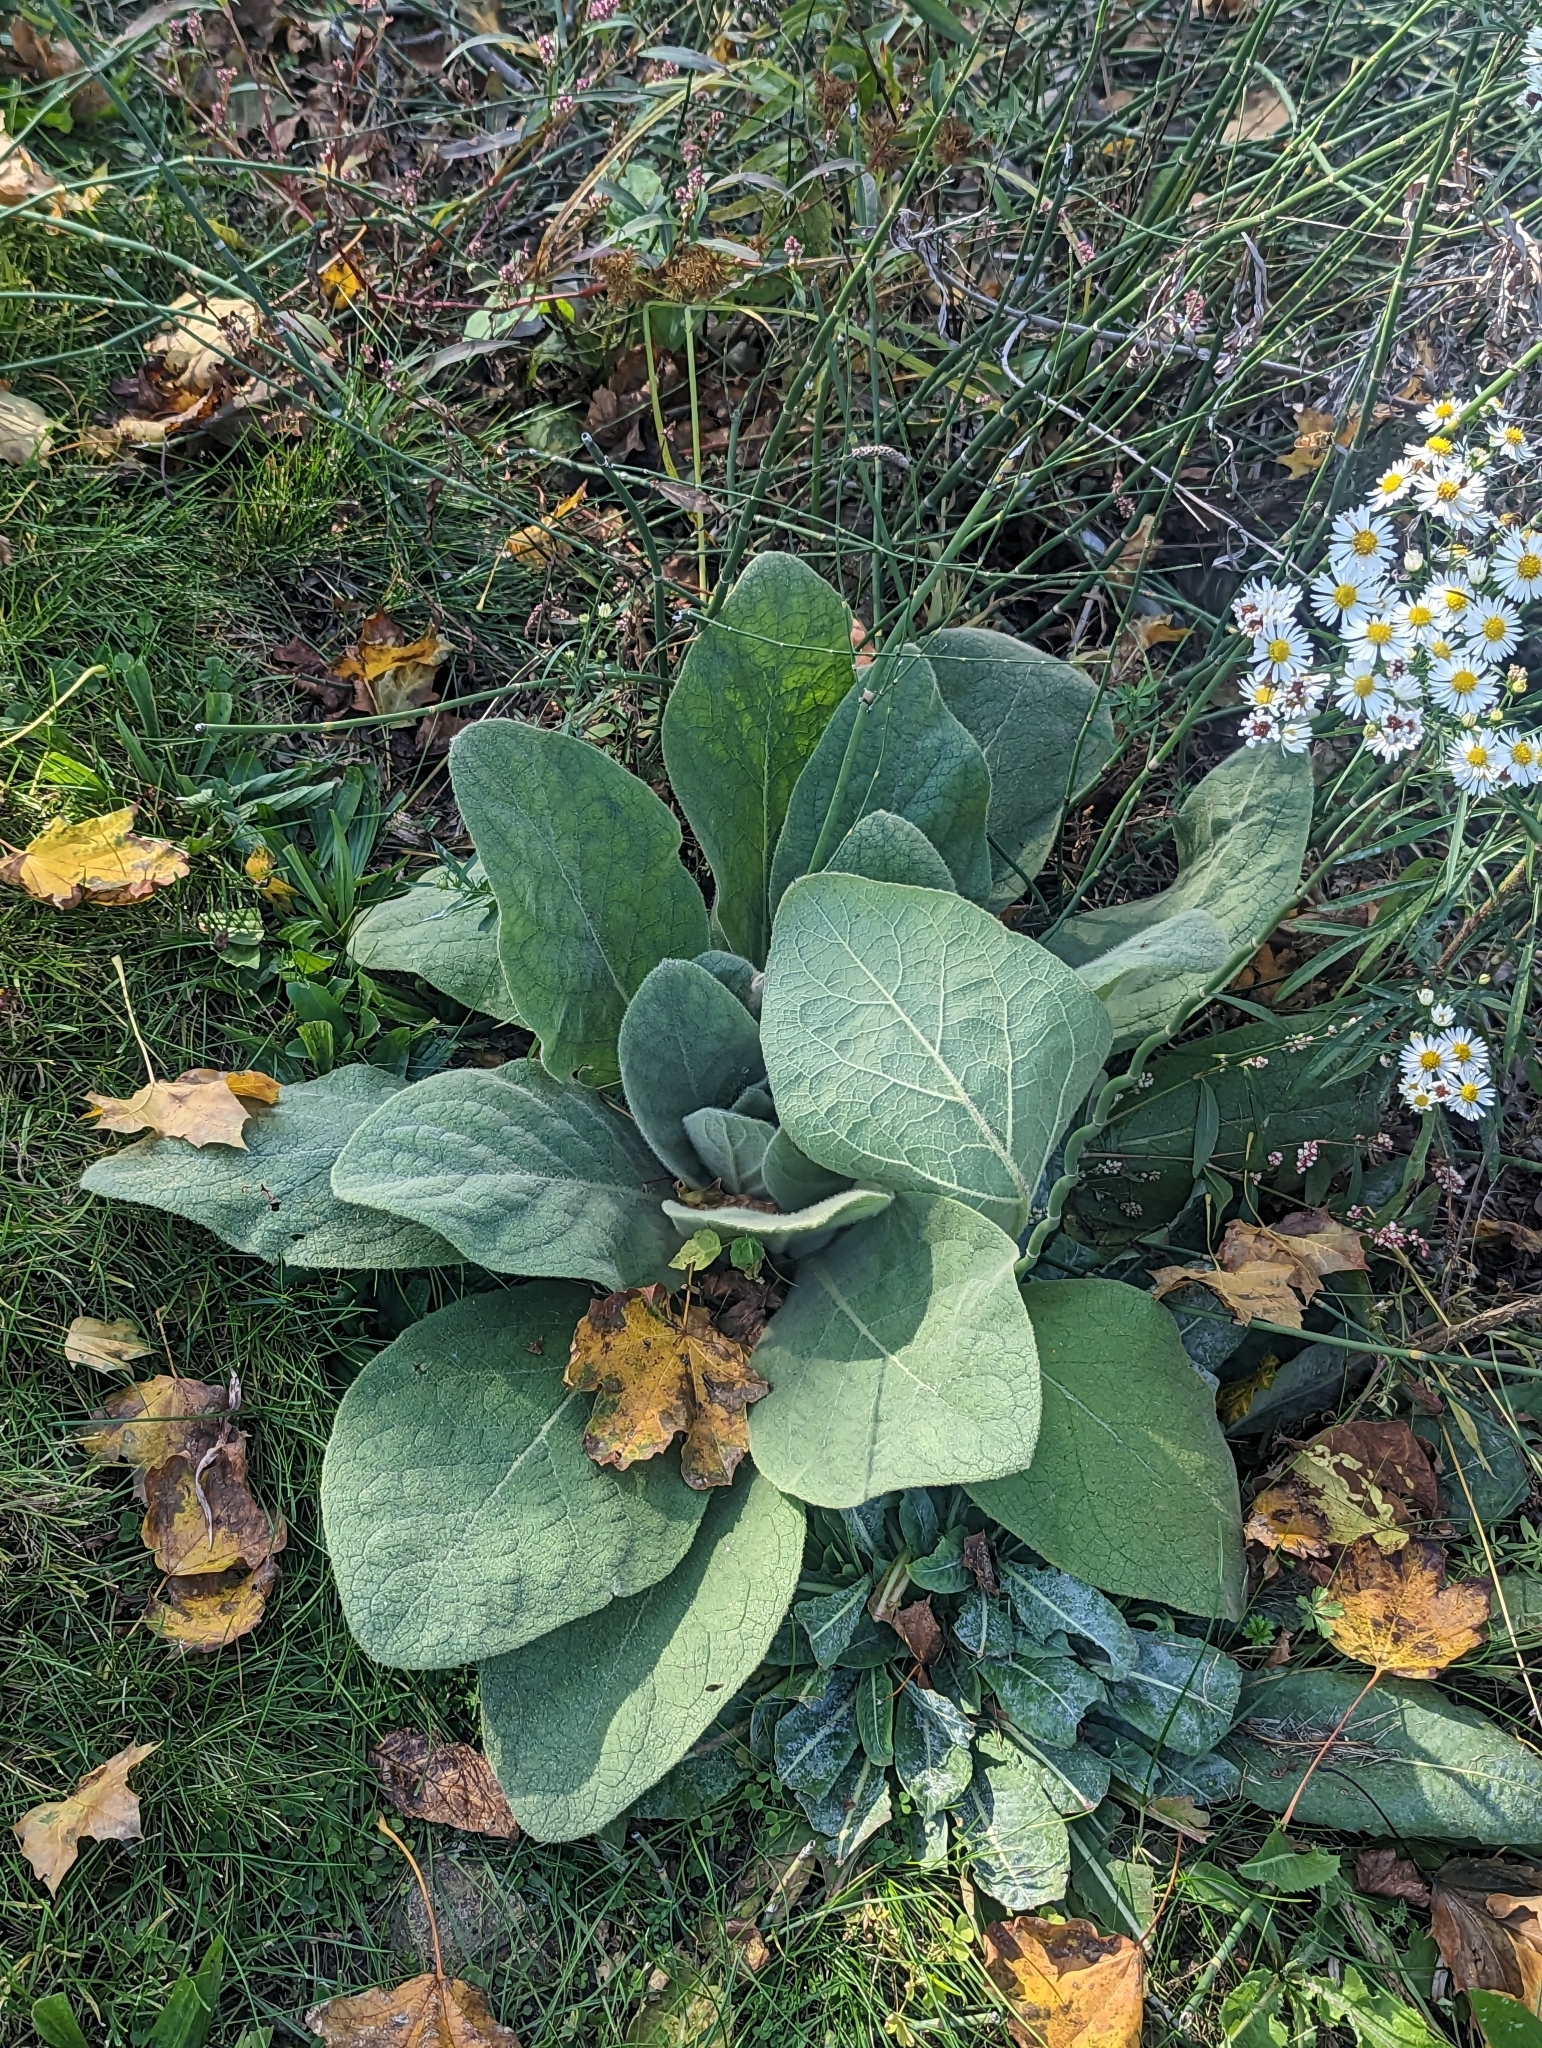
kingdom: Plantae
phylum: Tracheophyta
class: Magnoliopsida
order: Lamiales
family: Scrophulariaceae
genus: Verbascum
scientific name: Verbascum thapsus
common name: Common mullein
